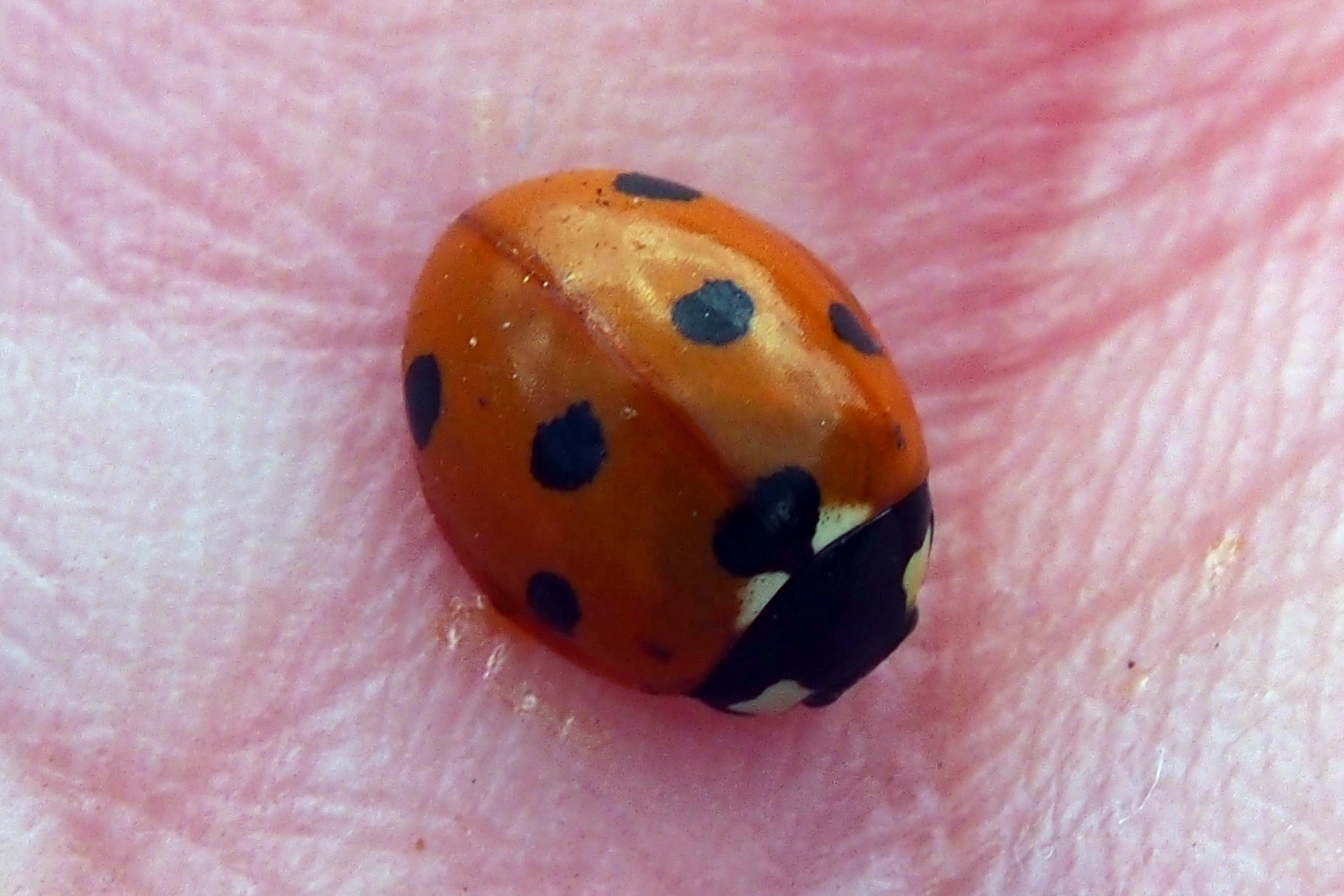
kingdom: Animalia
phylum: Arthropoda
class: Insecta
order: Coleoptera
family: Coccinellidae
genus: Coccinella
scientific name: Coccinella septempunctata
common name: Sevenspotted lady beetle
